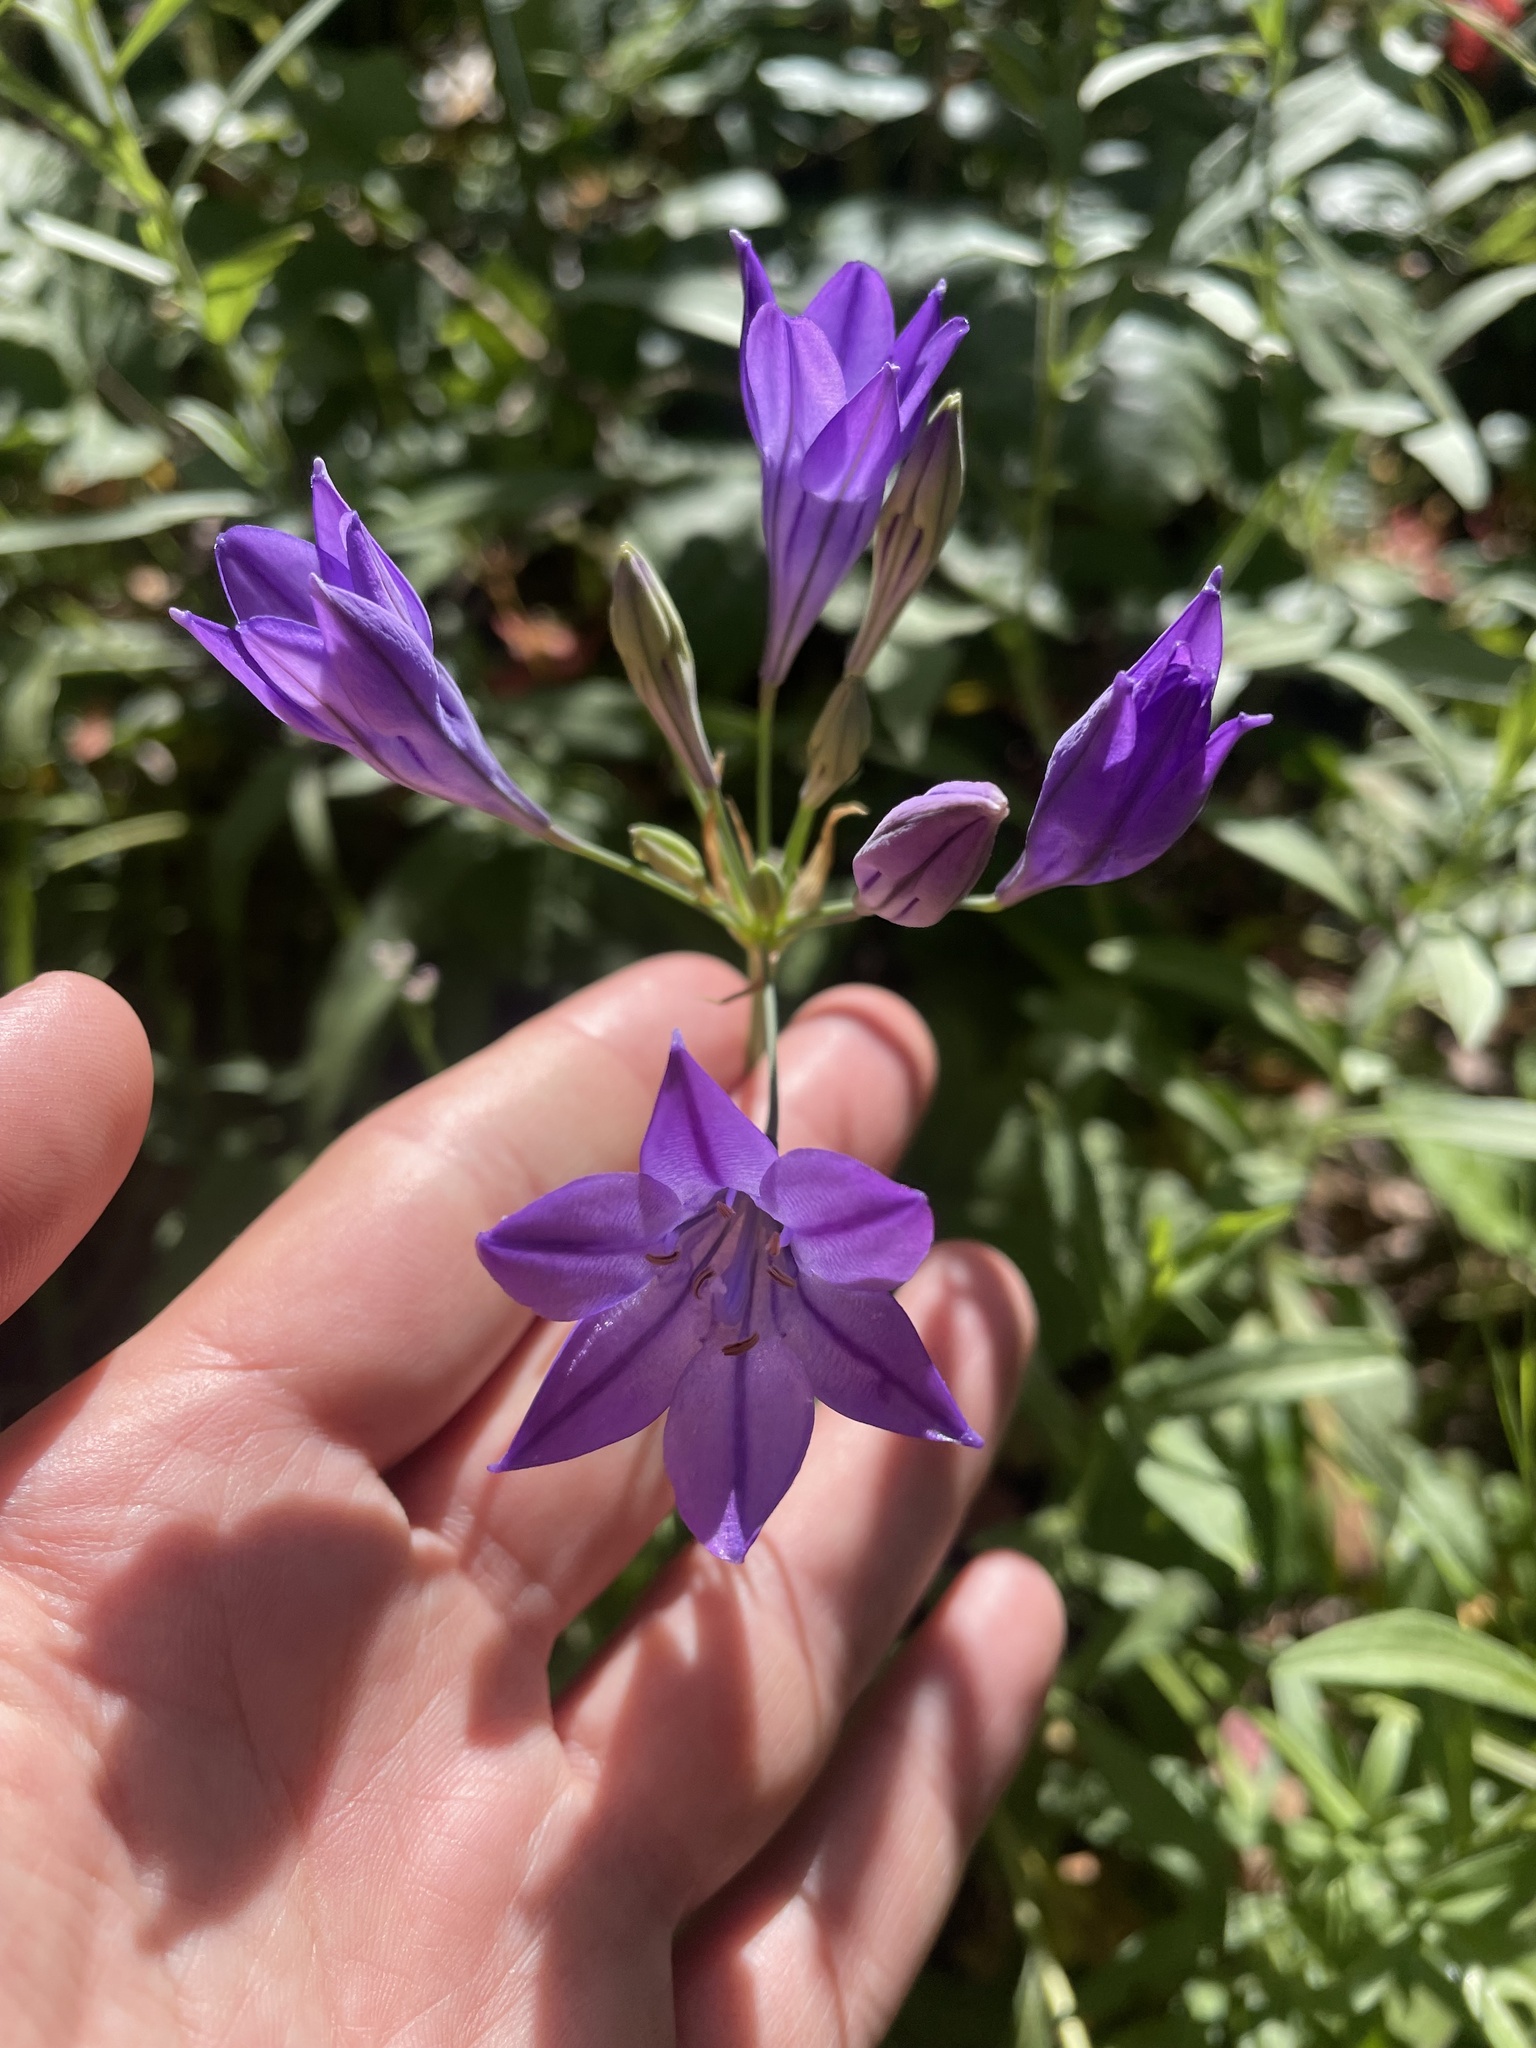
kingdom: Plantae
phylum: Tracheophyta
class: Liliopsida
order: Asparagales
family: Asparagaceae
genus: Triteleia
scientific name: Triteleia laxa
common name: Triplet-lily
